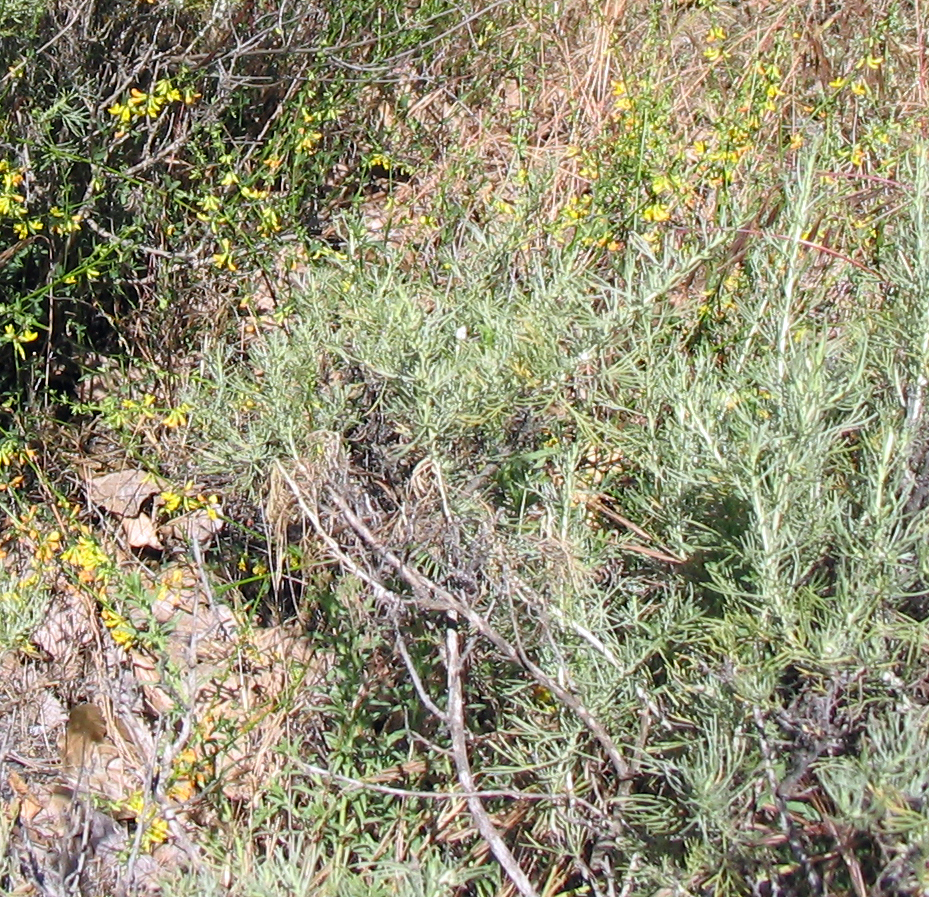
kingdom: Plantae
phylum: Tracheophyta
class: Magnoliopsida
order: Asterales
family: Asteraceae
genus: Artemisia
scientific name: Artemisia californica
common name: California sagebrush
